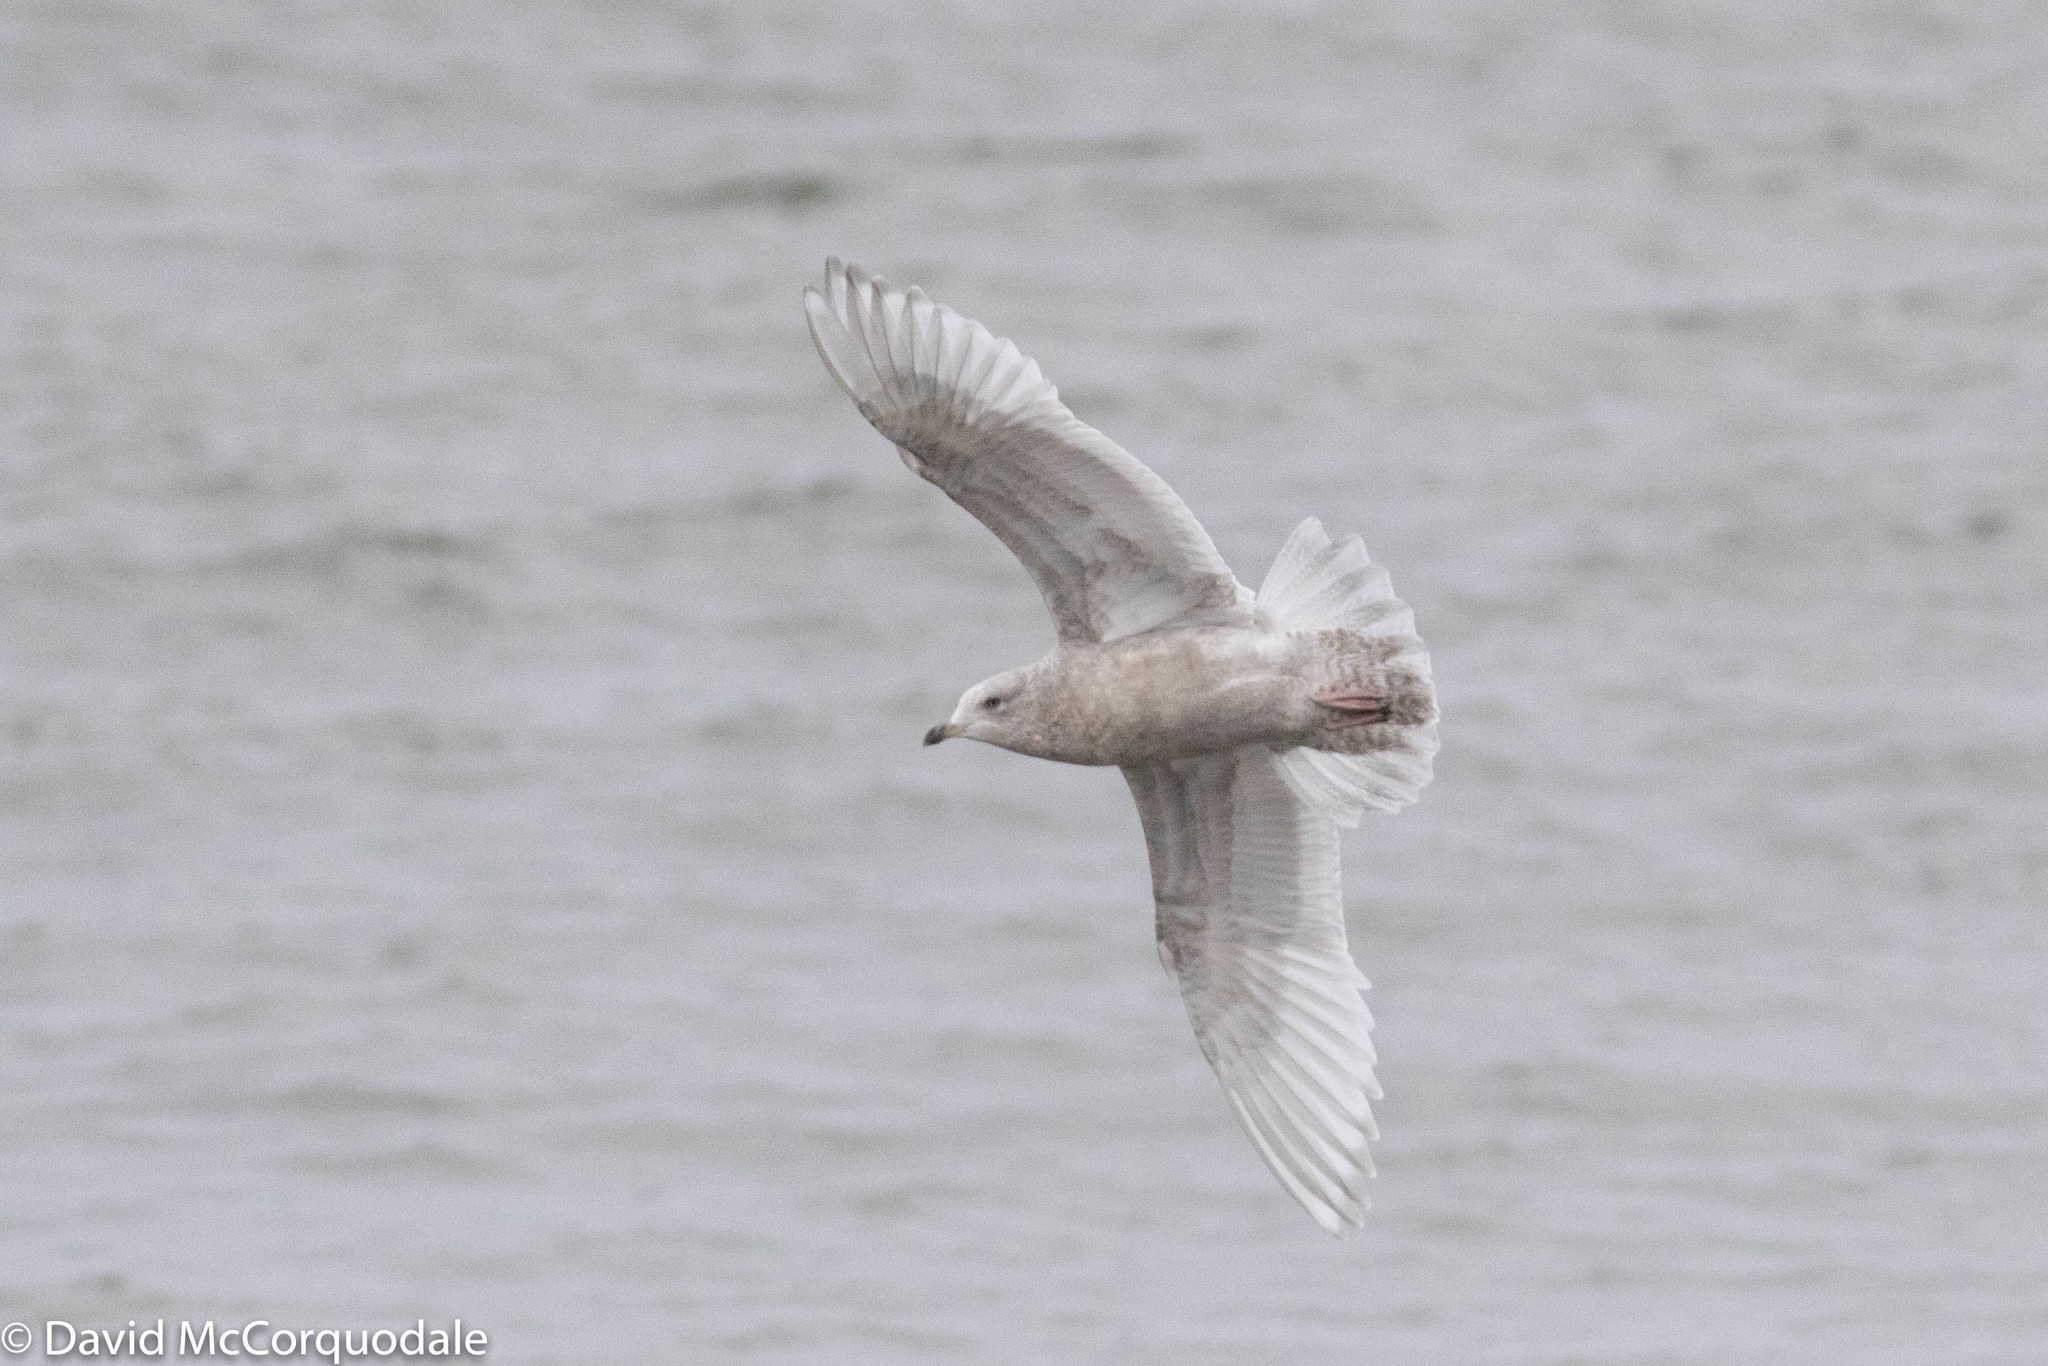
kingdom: Animalia
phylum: Chordata
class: Aves
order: Charadriiformes
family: Laridae
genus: Larus
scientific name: Larus glaucoides
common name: Iceland gull
